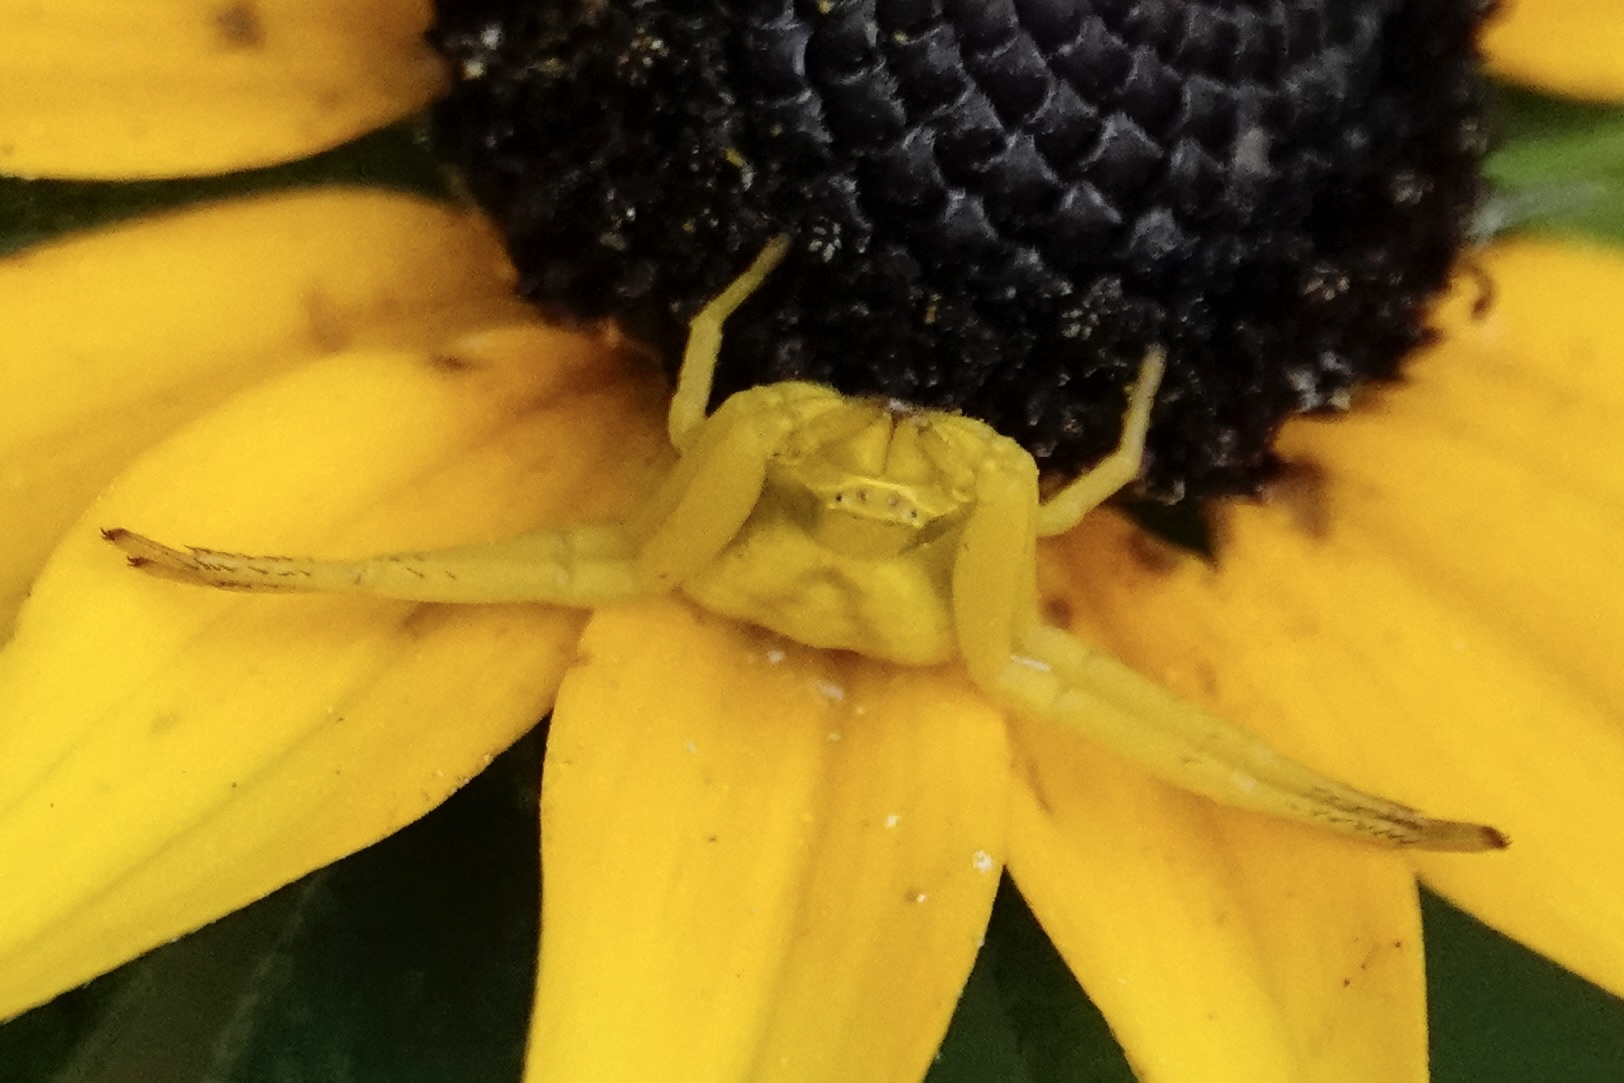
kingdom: Animalia
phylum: Arthropoda
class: Arachnida
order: Araneae
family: Thomisidae
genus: Misumenoides
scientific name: Misumenoides formosipes
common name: White-banded crab spider
